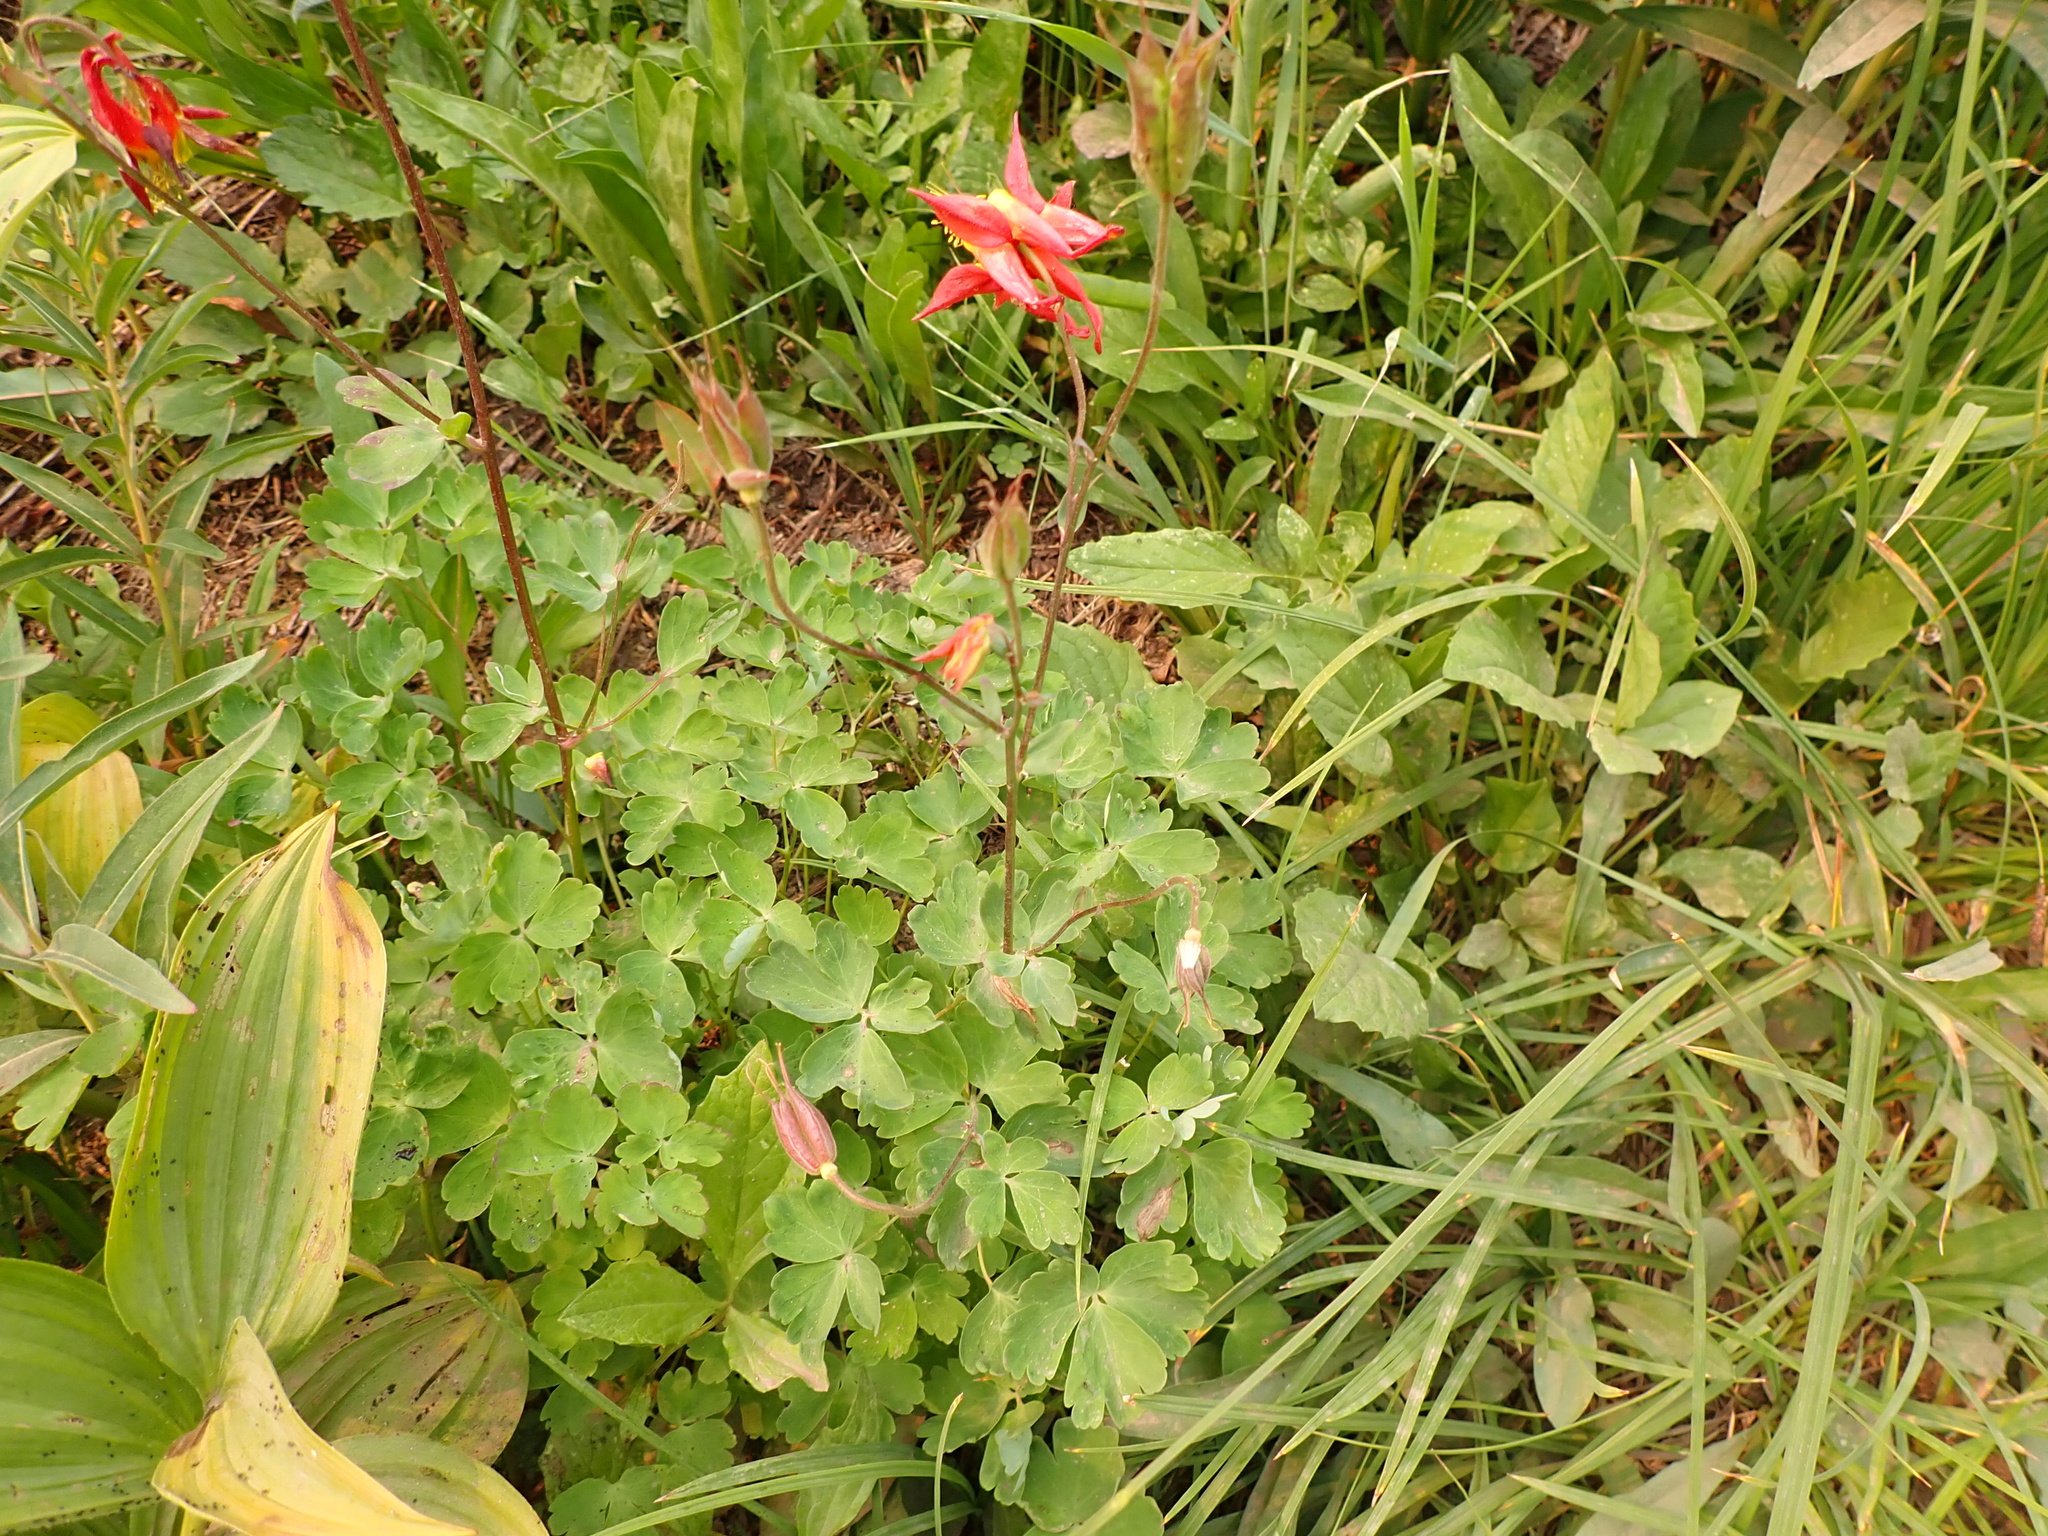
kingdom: Plantae
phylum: Tracheophyta
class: Magnoliopsida
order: Ranunculales
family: Ranunculaceae
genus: Aquilegia
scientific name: Aquilegia formosa
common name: Sitka columbine
